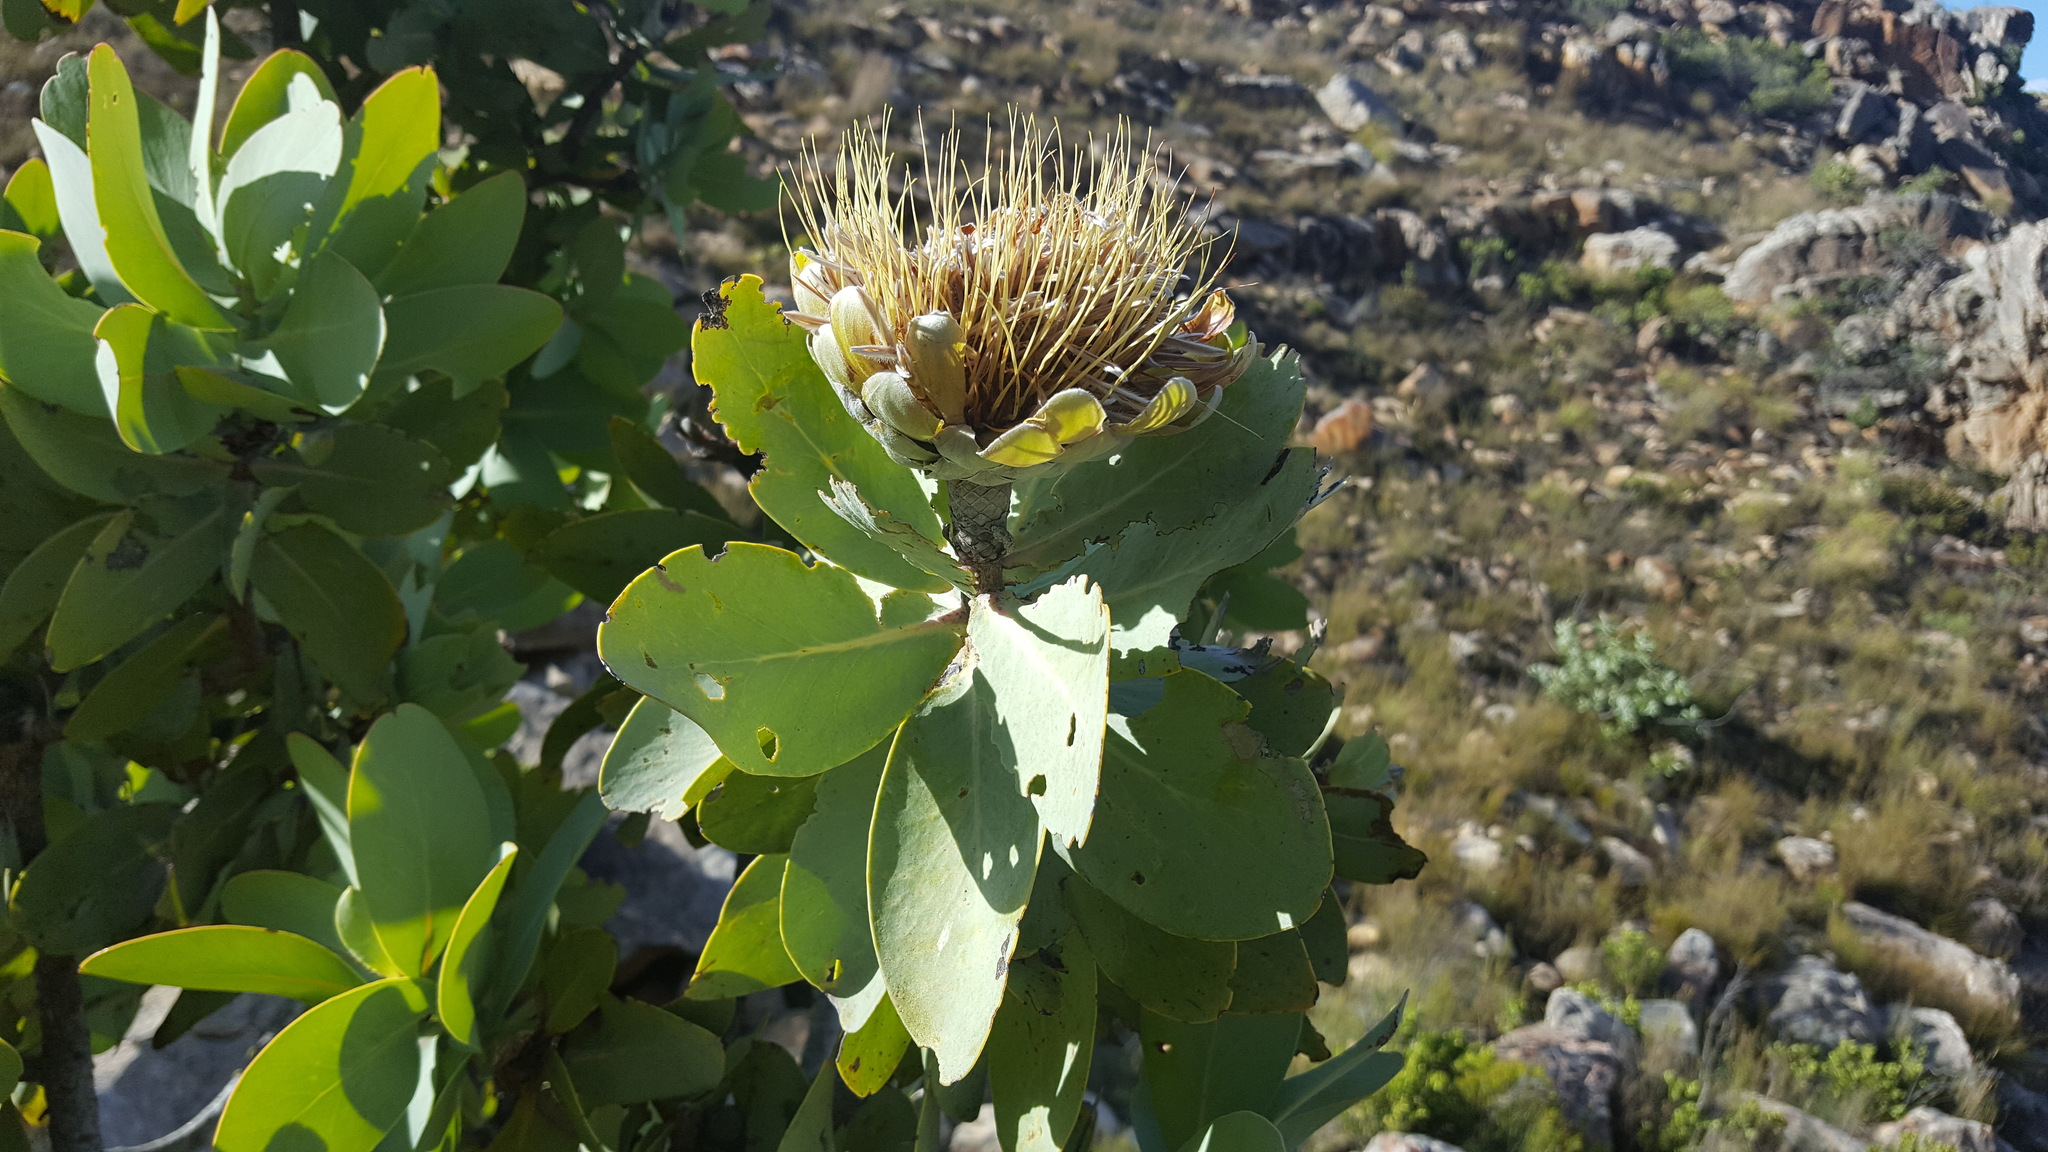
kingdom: Plantae
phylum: Tracheophyta
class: Magnoliopsida
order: Proteales
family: Proteaceae
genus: Protea
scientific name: Protea nitida
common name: Tree protea
